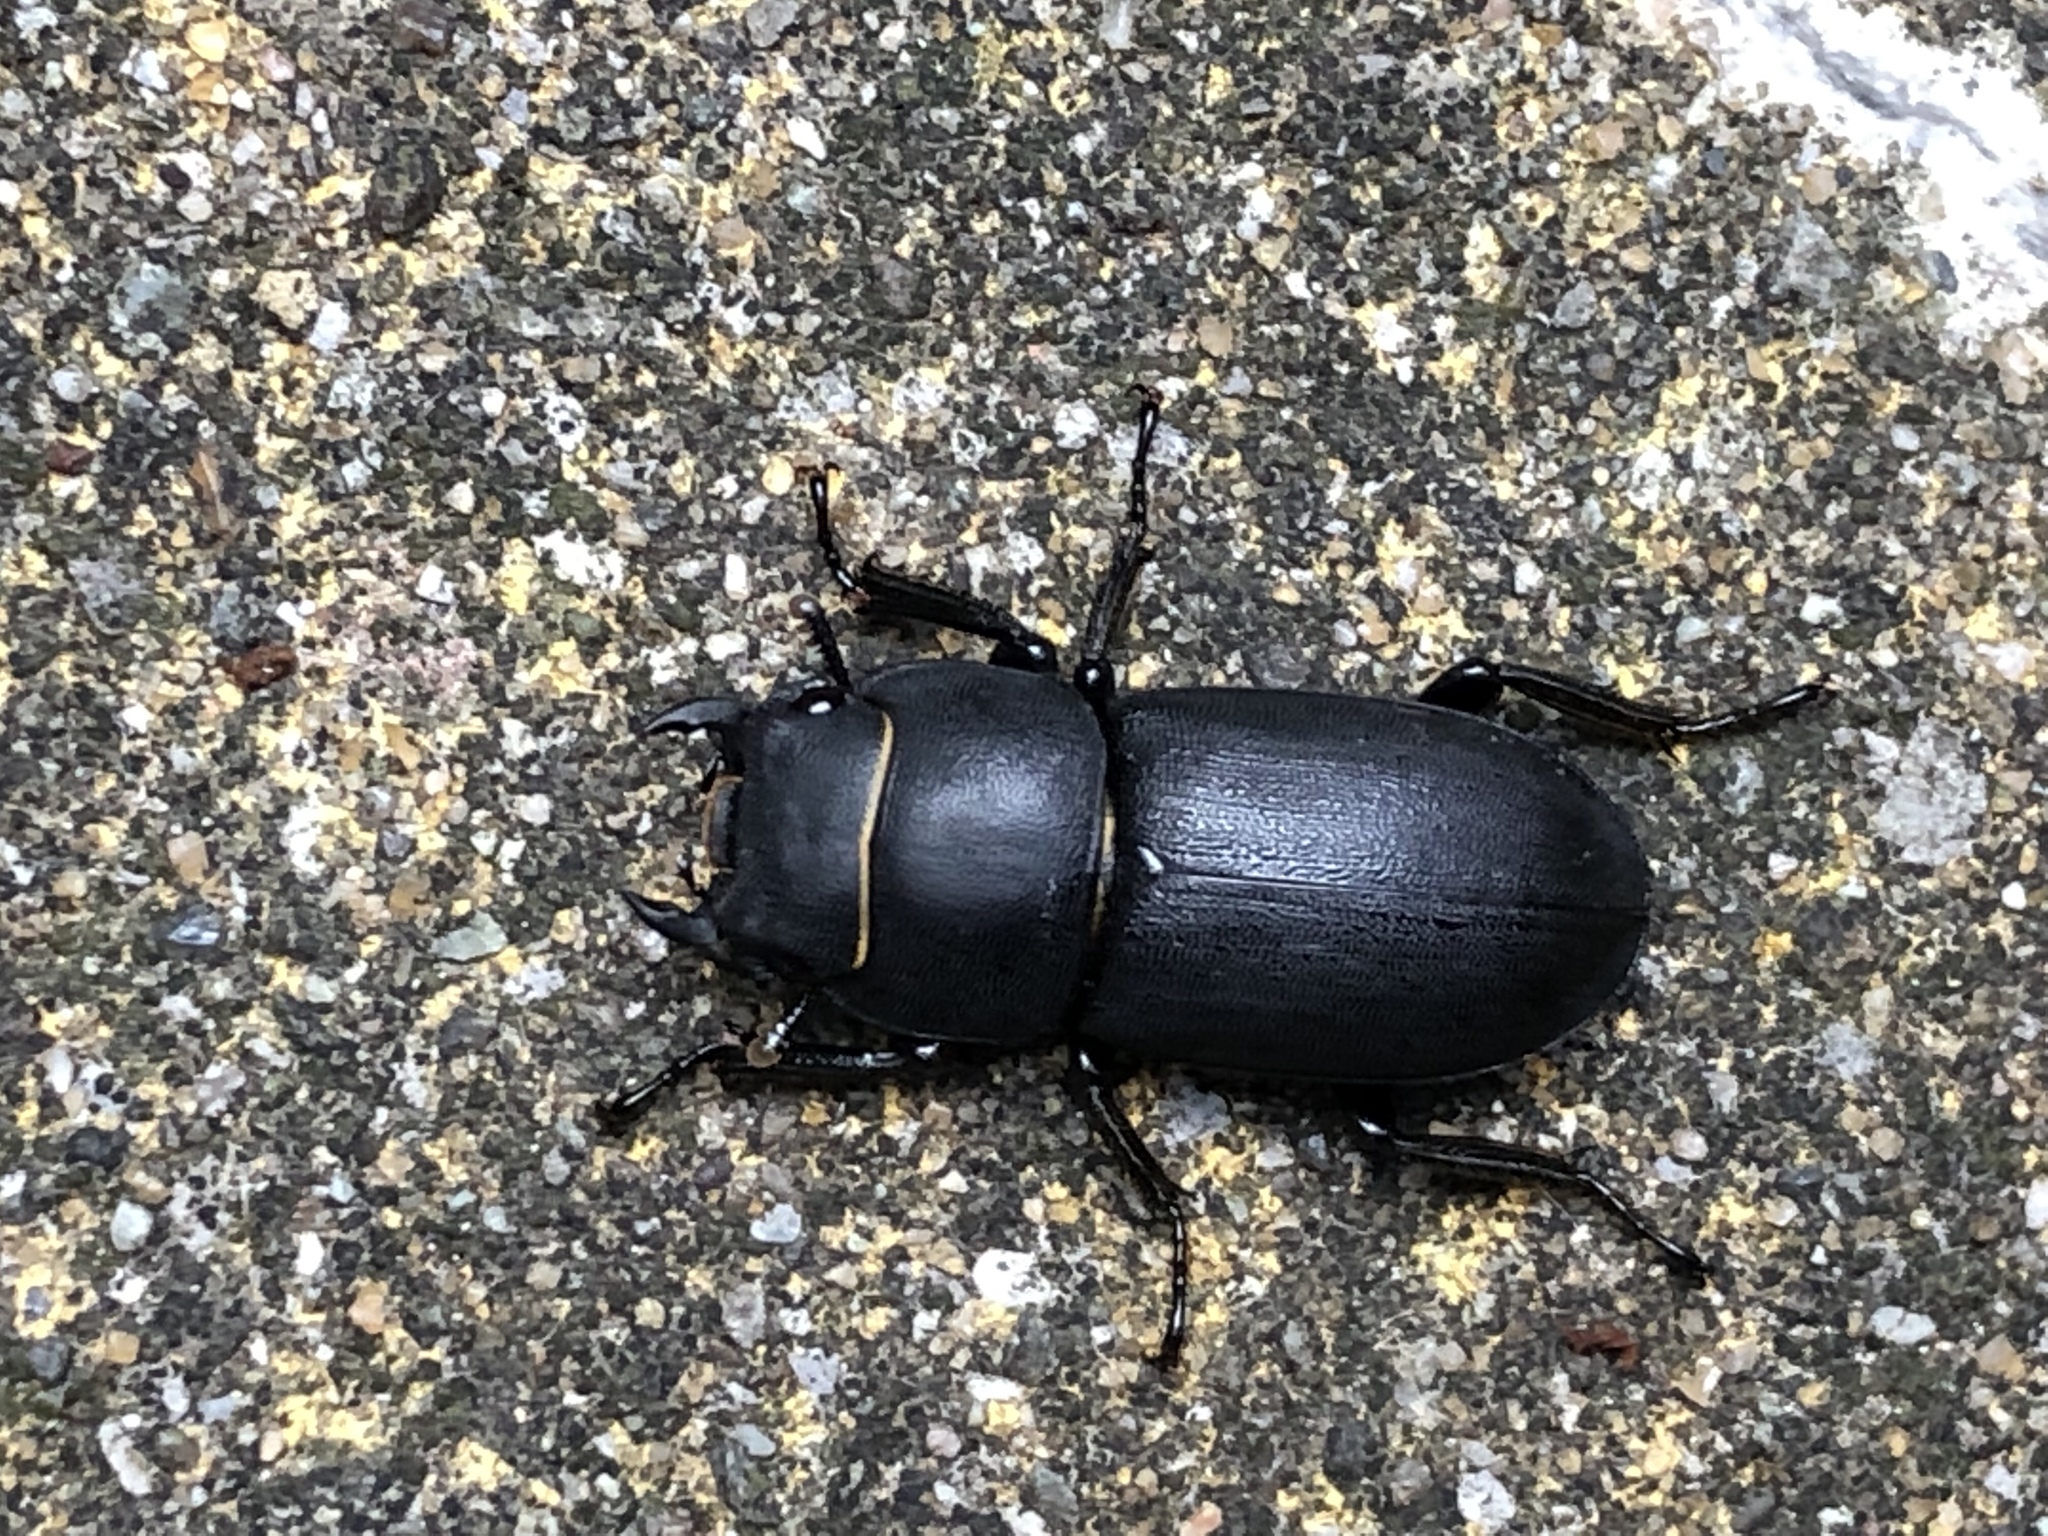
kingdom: Animalia
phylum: Arthropoda
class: Insecta
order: Coleoptera
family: Lucanidae
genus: Dorcus
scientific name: Dorcus parallelipipedus
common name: Lesser stag beetle
